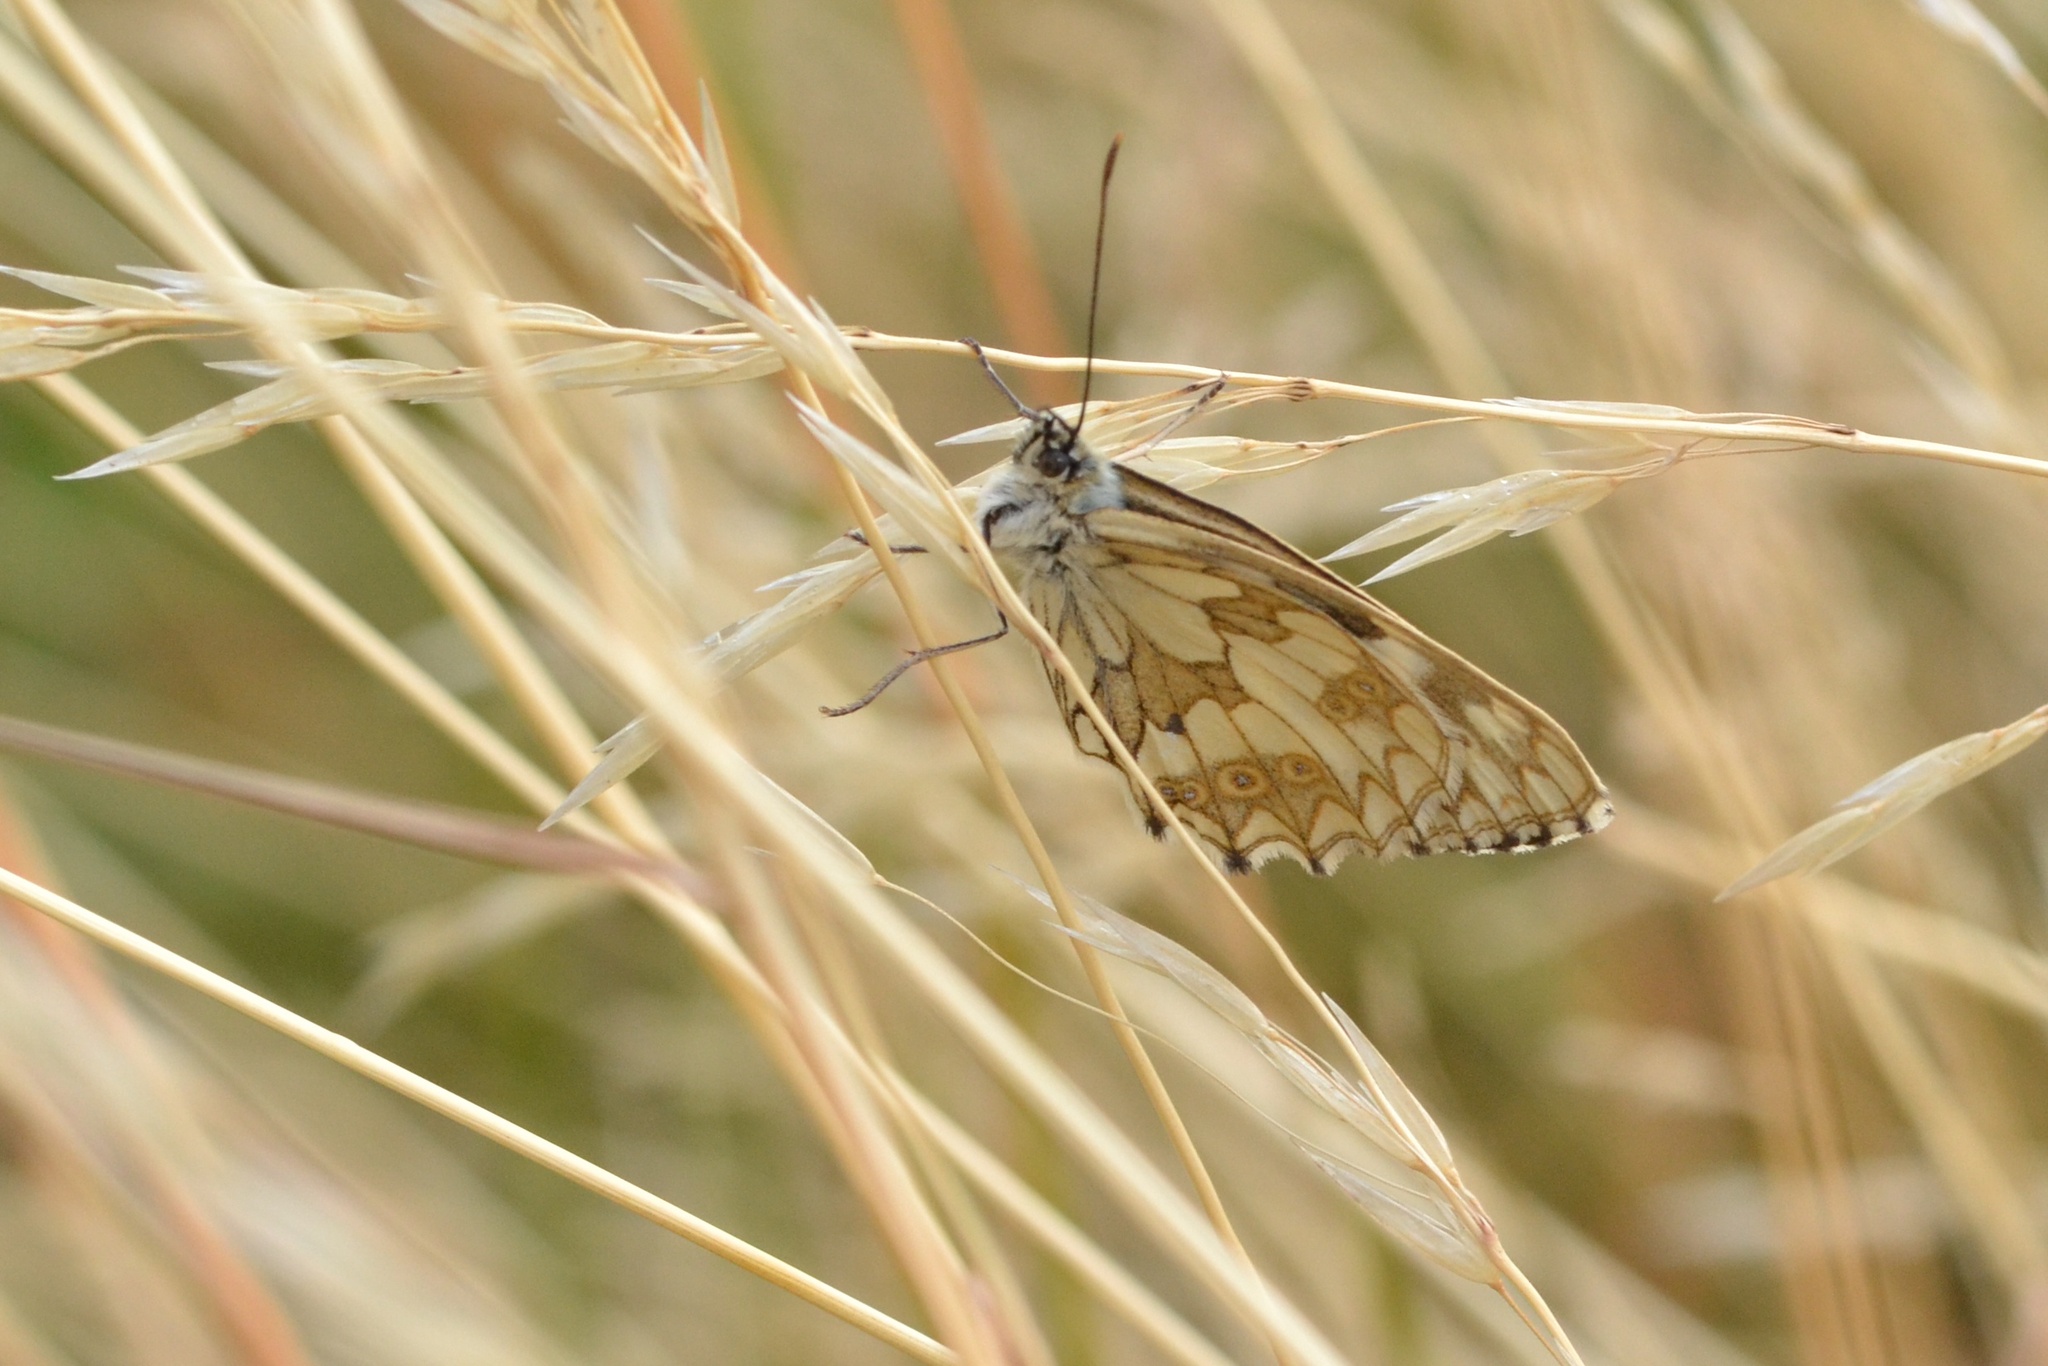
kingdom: Animalia
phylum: Arthropoda
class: Insecta
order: Lepidoptera
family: Nymphalidae
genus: Melanargia
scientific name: Melanargia galathea
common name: Marbled white
